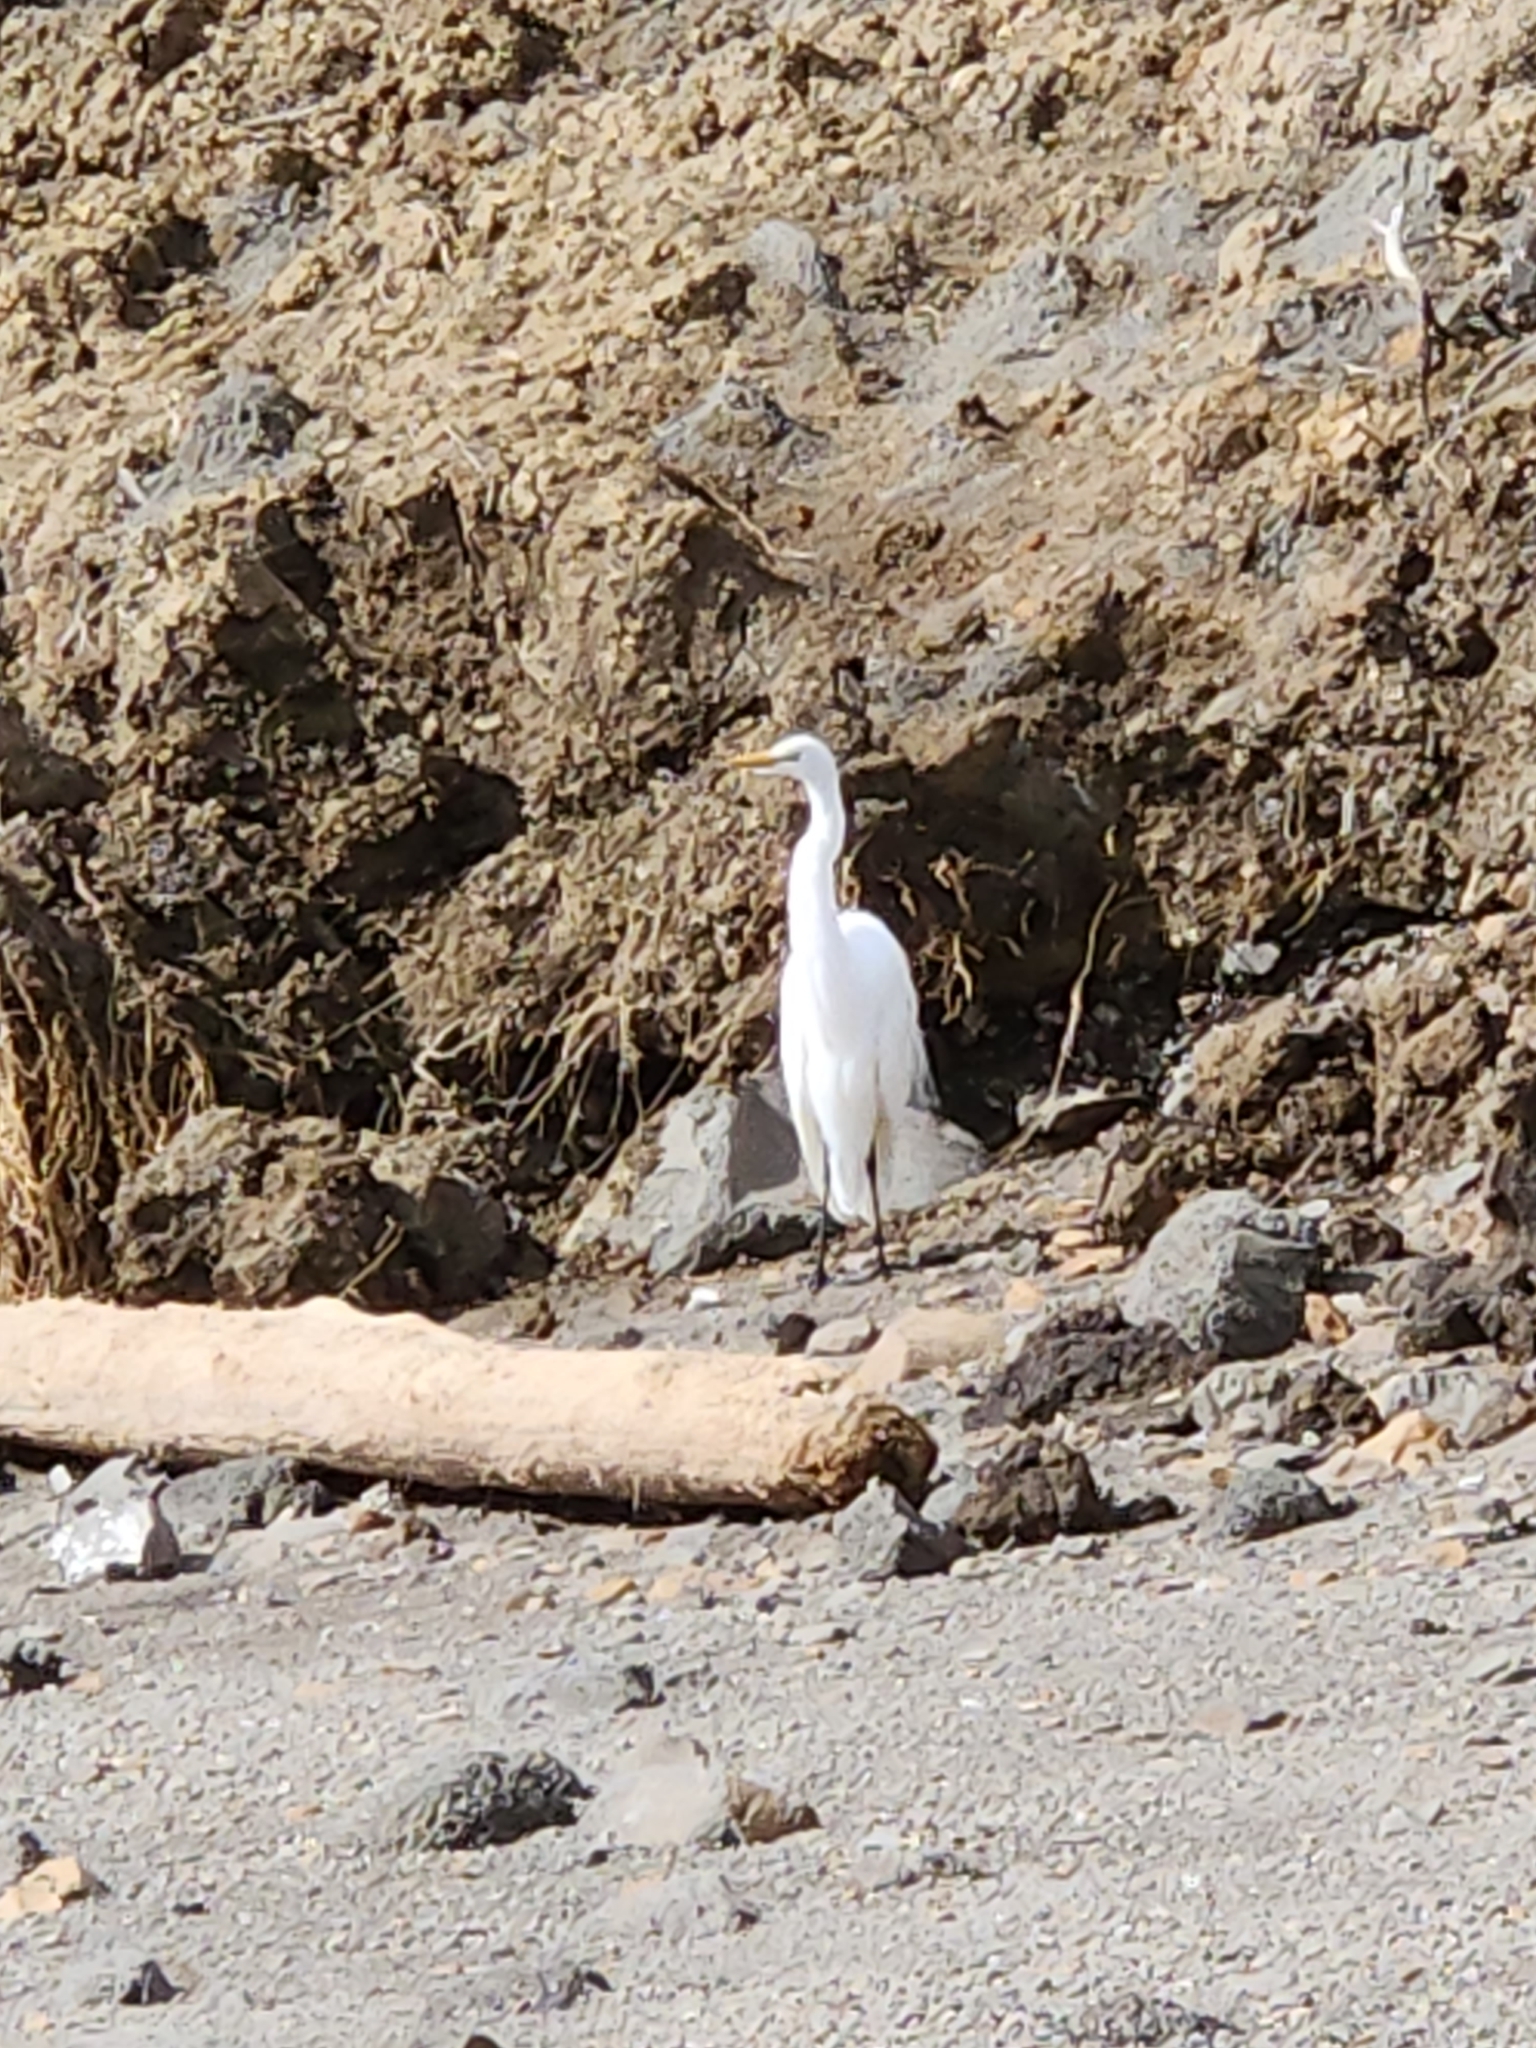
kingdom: Animalia
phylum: Chordata
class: Aves
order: Pelecaniformes
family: Ardeidae
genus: Ardea
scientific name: Ardea alba
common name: Great egret
